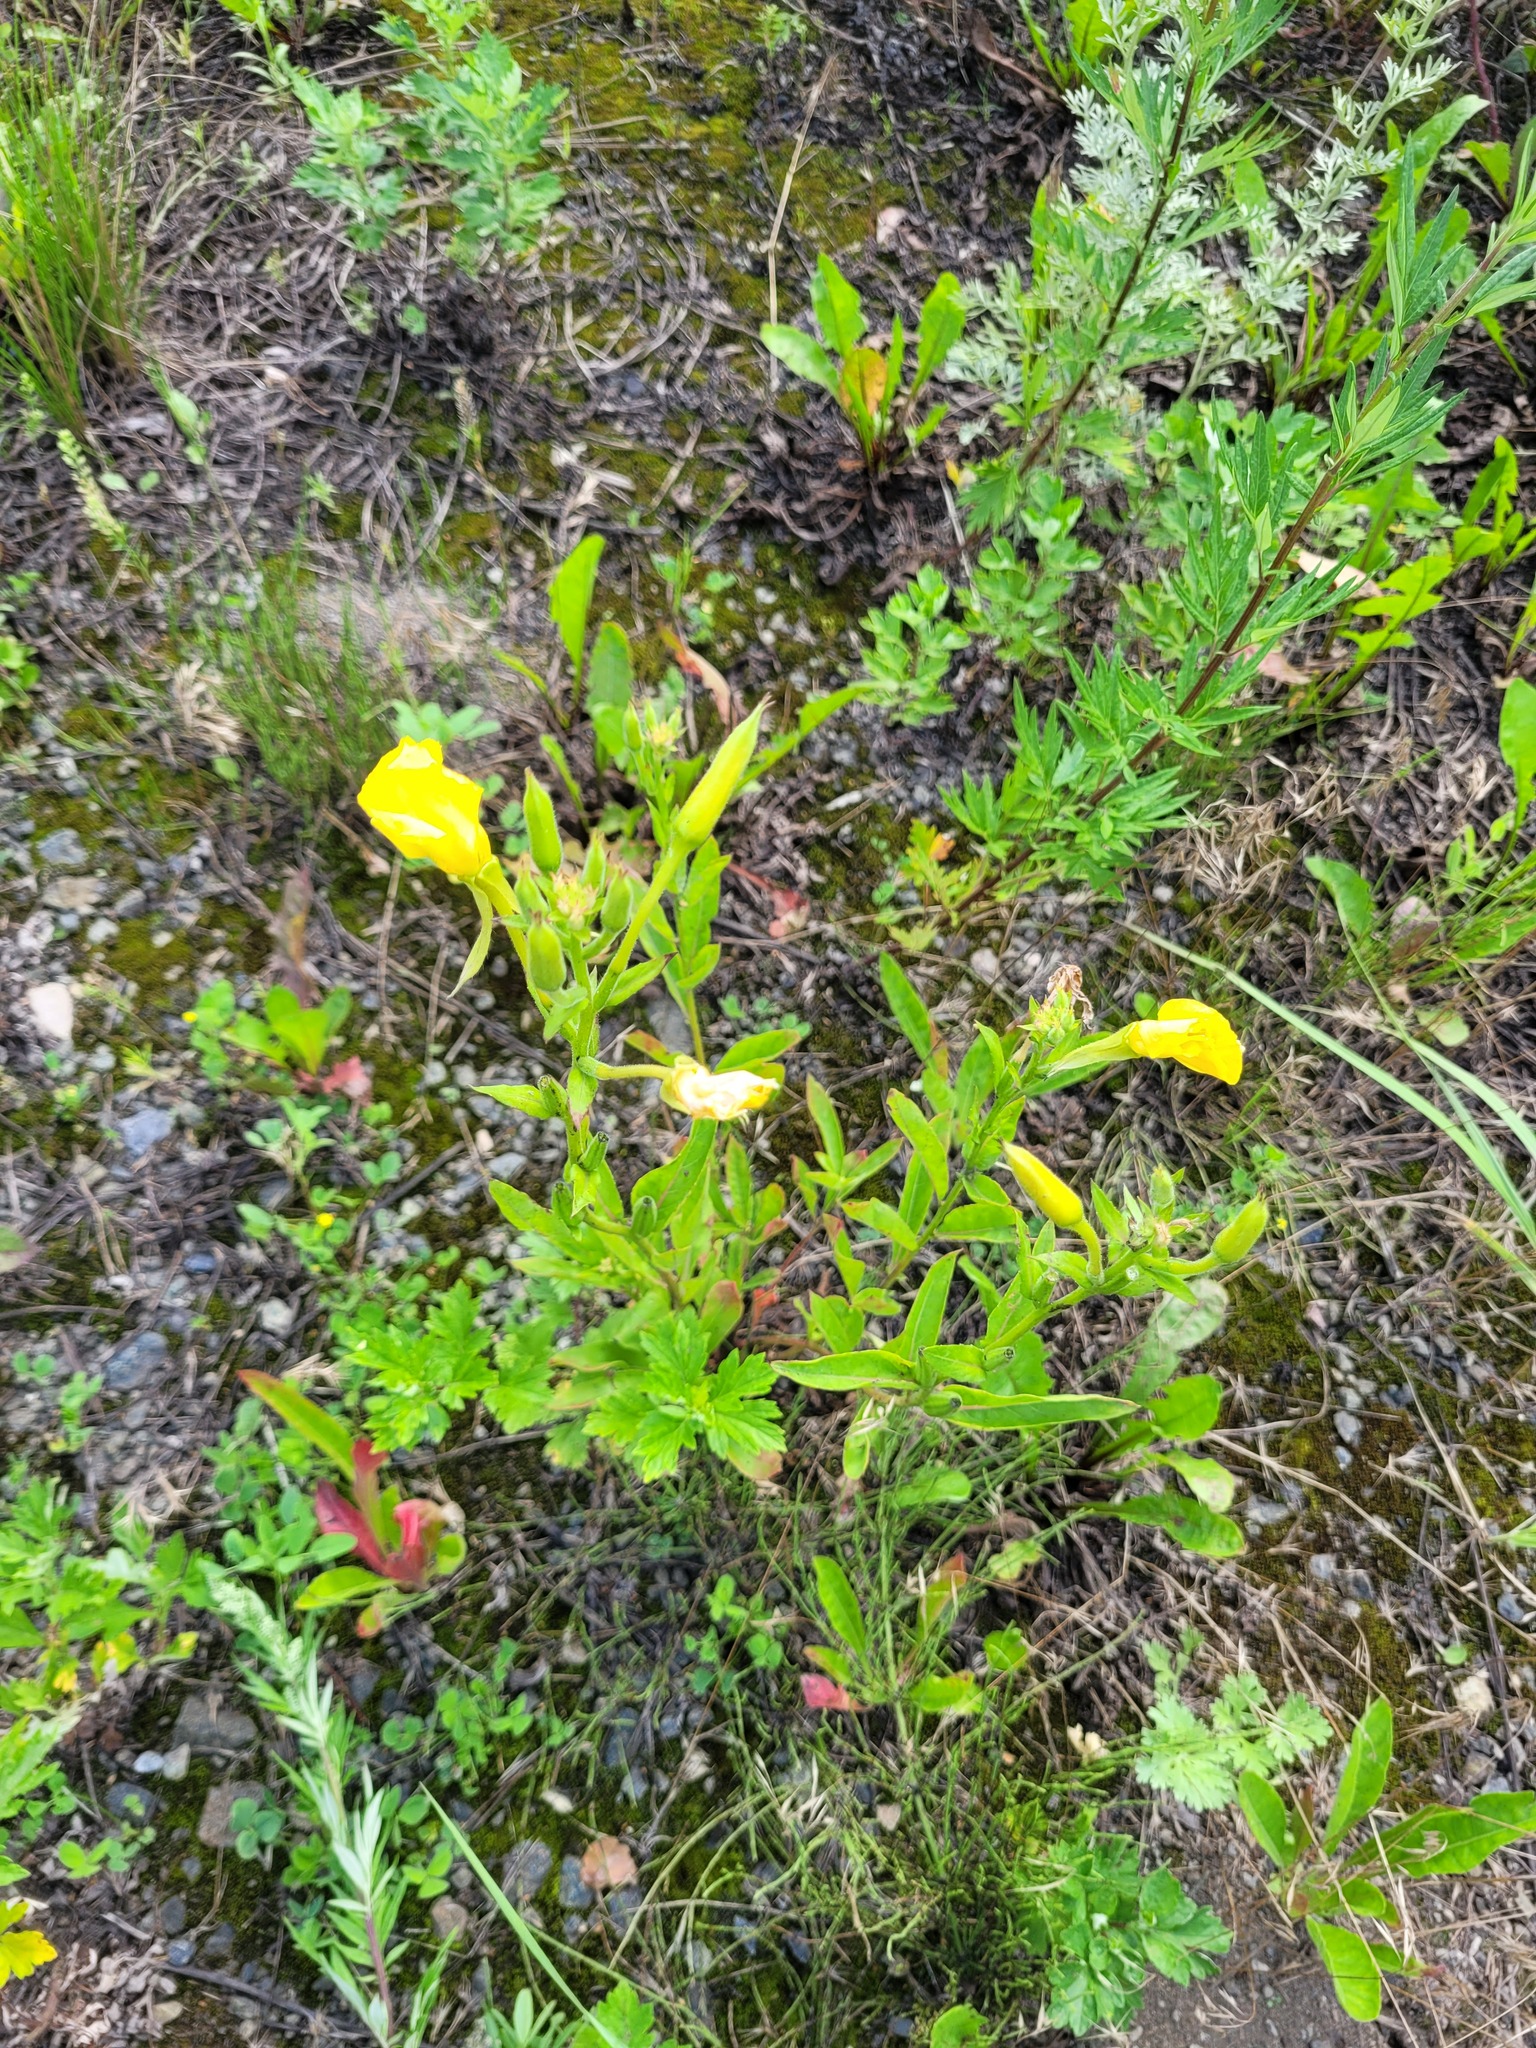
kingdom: Plantae
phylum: Tracheophyta
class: Magnoliopsida
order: Myrtales
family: Onagraceae
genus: Oenothera
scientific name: Oenothera biennis
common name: Common evening-primrose
